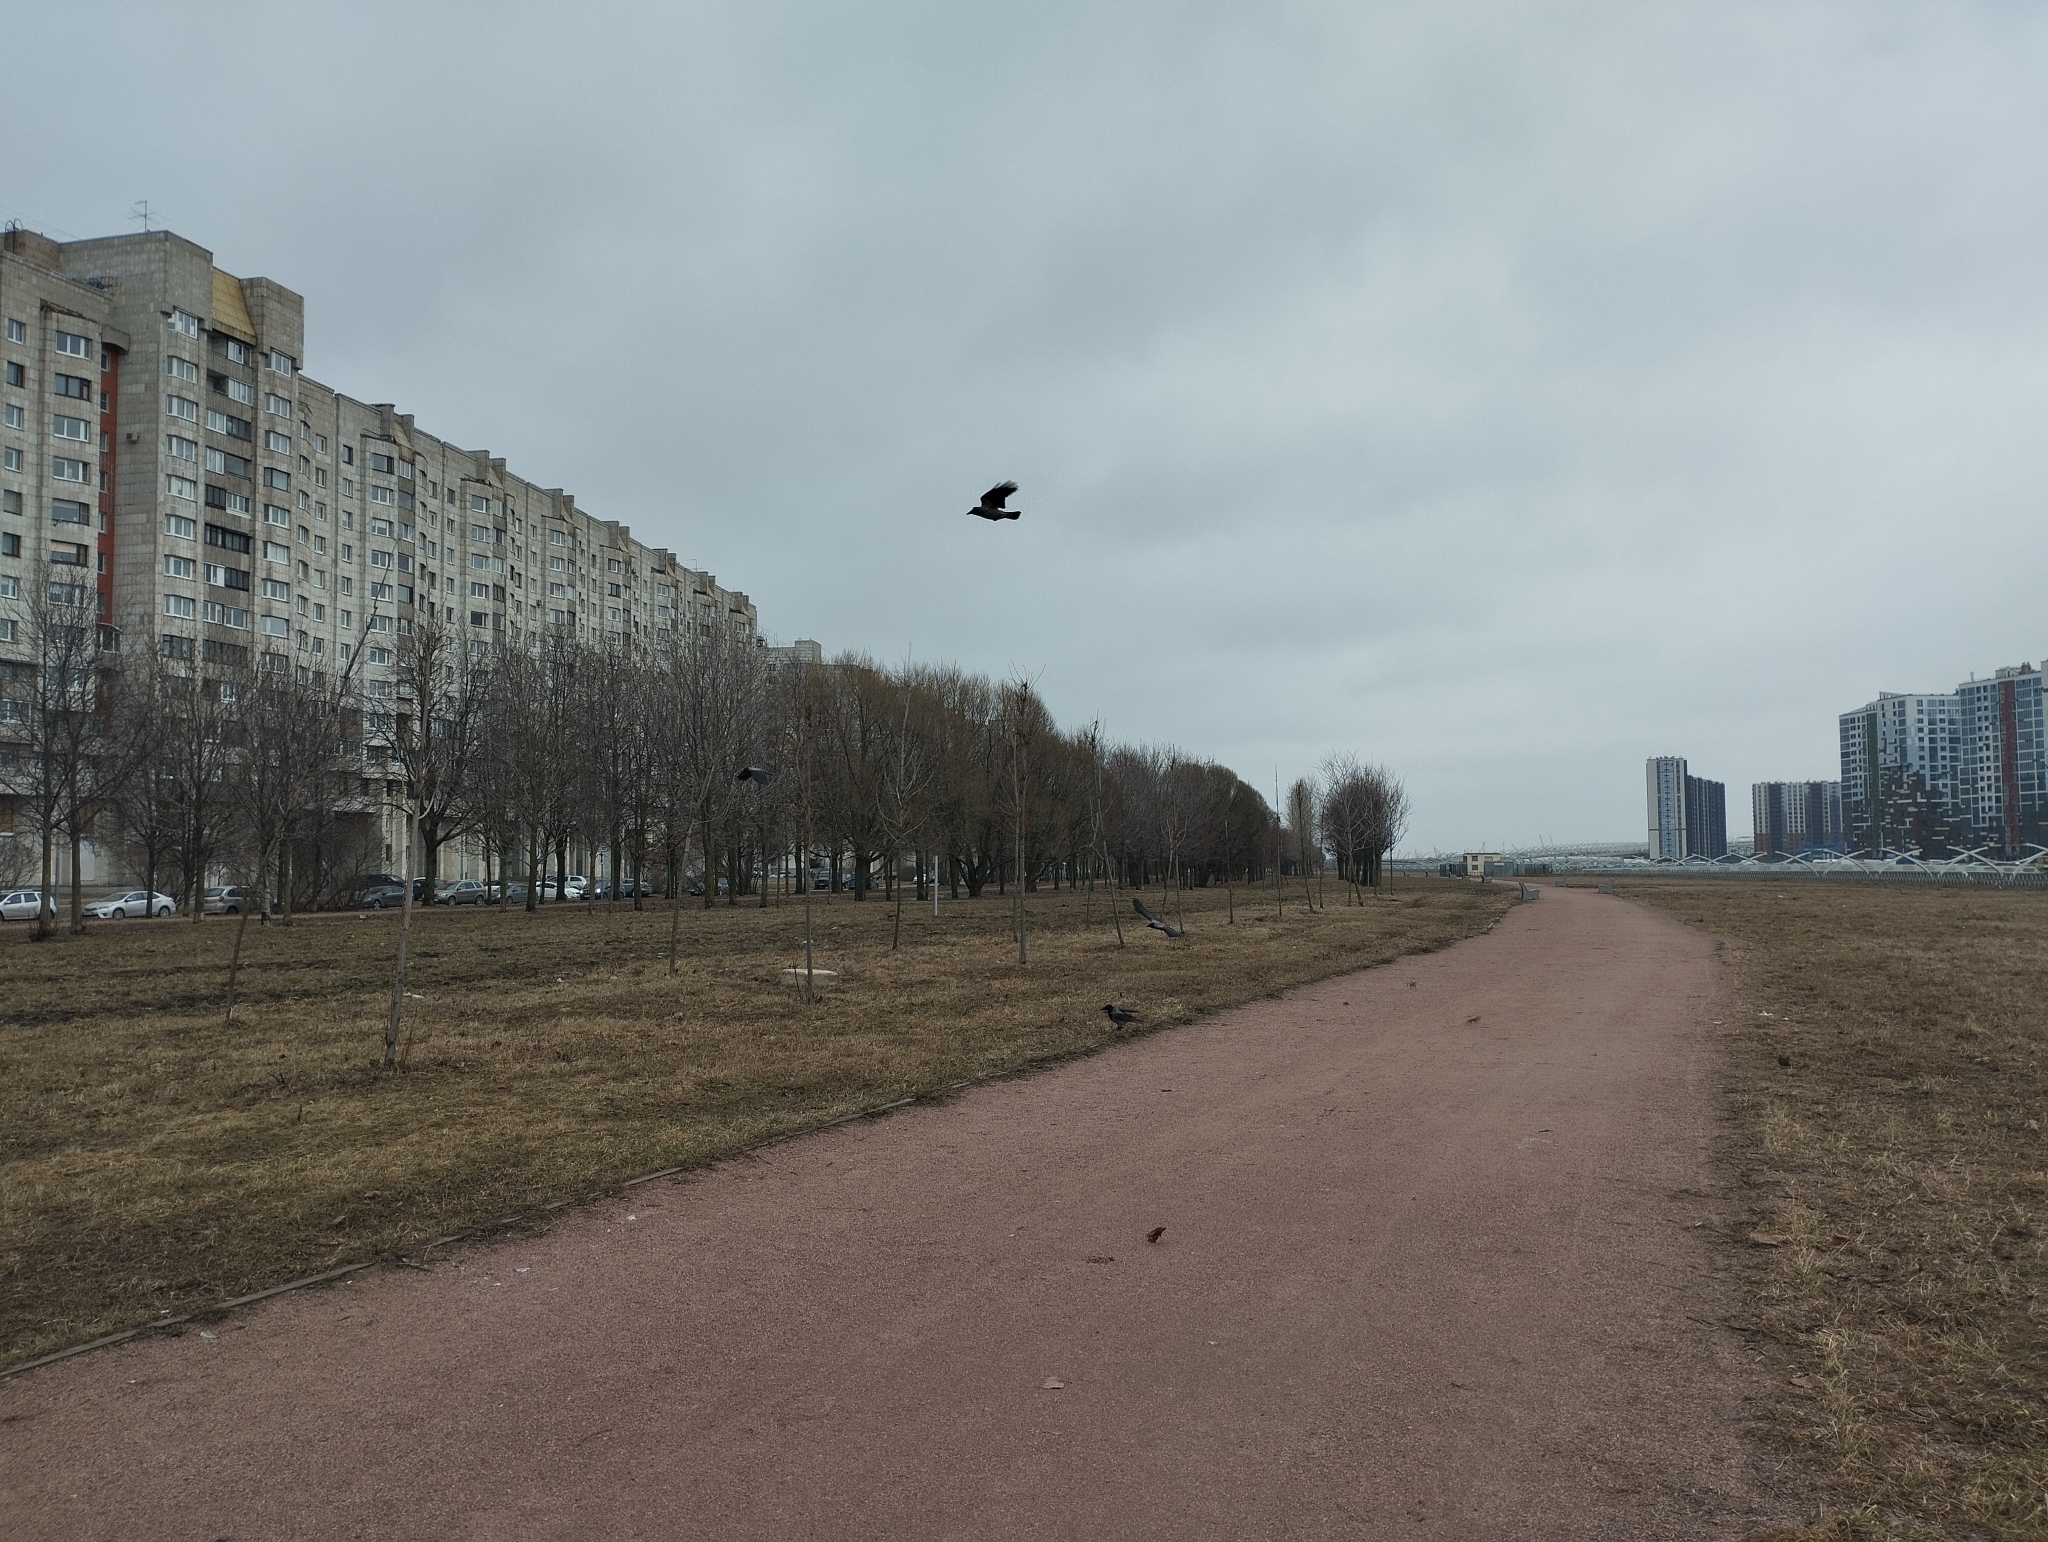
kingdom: Animalia
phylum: Chordata
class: Aves
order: Passeriformes
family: Corvidae
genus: Corvus
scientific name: Corvus cornix
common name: Hooded crow
